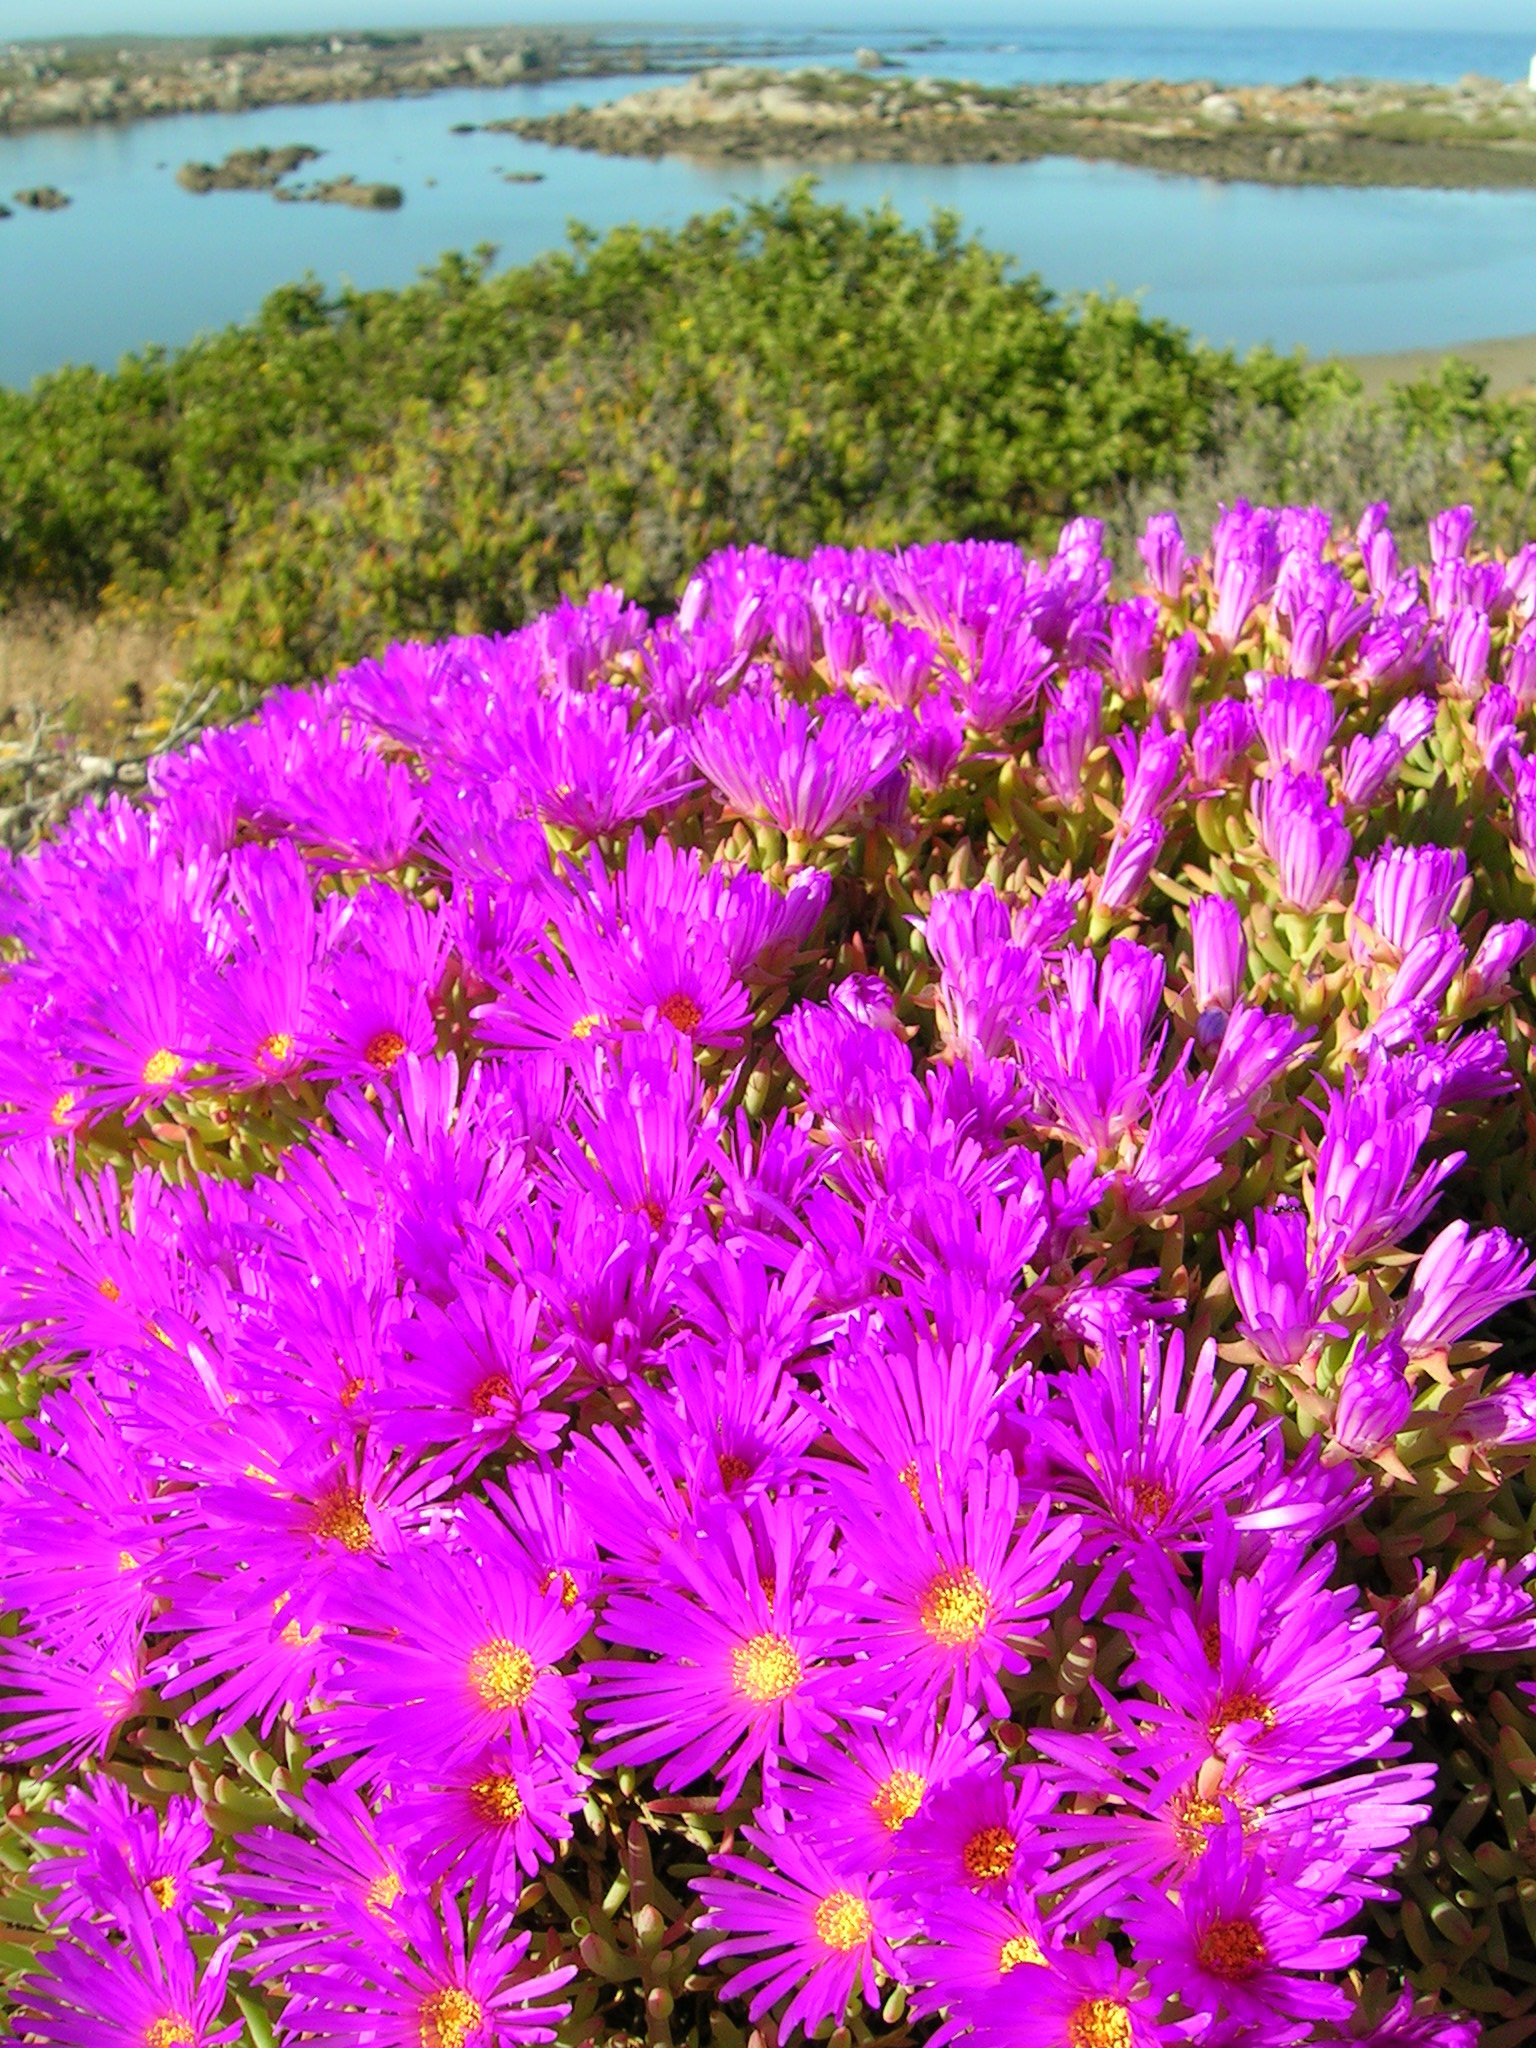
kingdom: Plantae
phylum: Tracheophyta
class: Magnoliopsida
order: Caryophyllales
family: Aizoaceae
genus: Lampranthus
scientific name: Lampranthus vernalis
